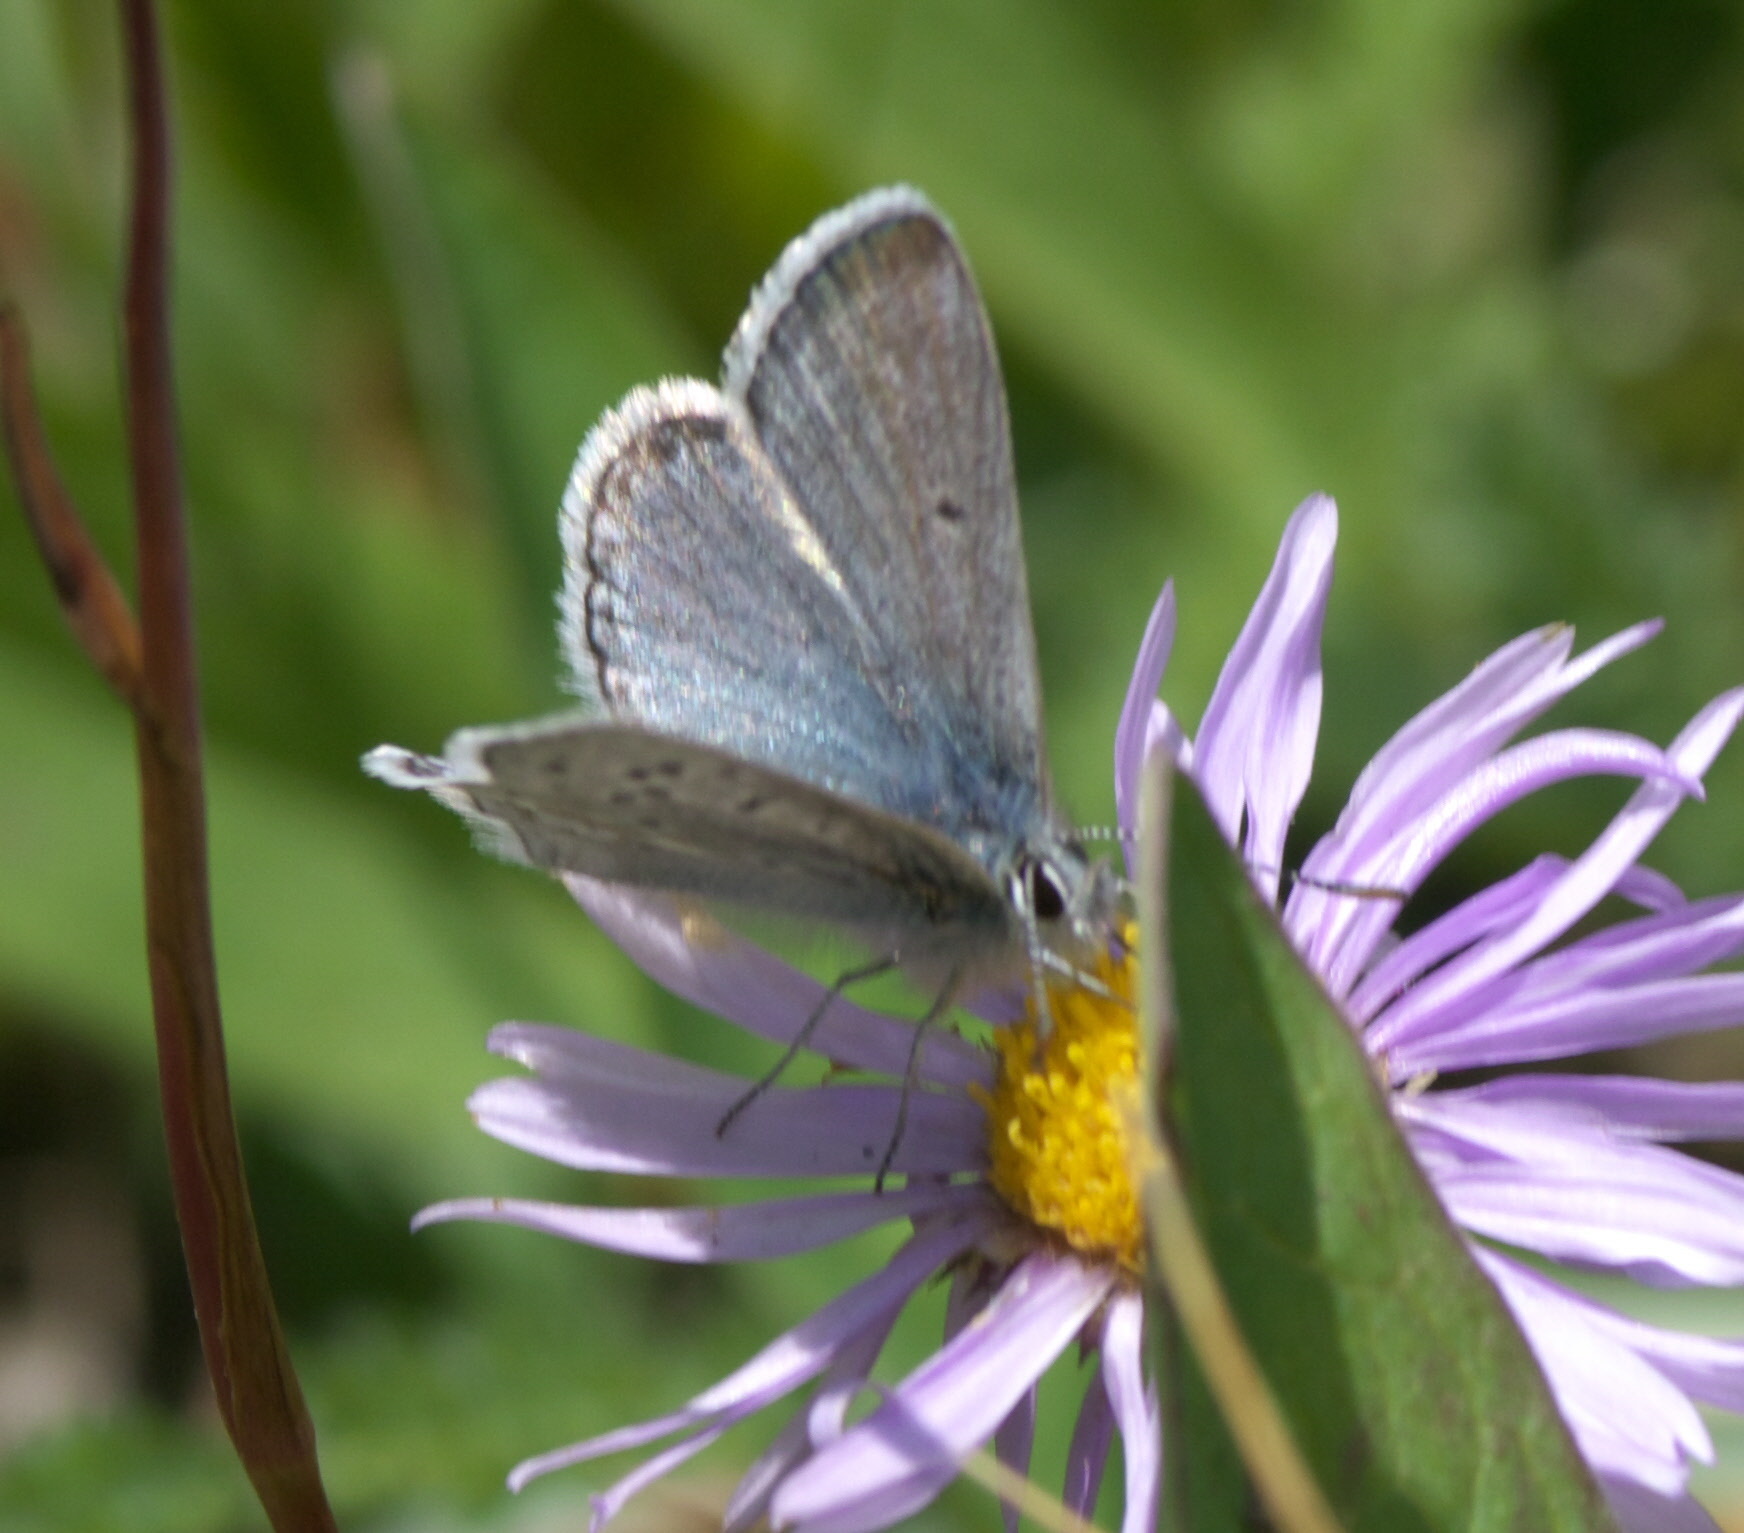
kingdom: Animalia
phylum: Arthropoda
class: Insecta
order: Lepidoptera
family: Lycaenidae
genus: Agriades
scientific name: Agriades glandon
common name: Glandon blue
